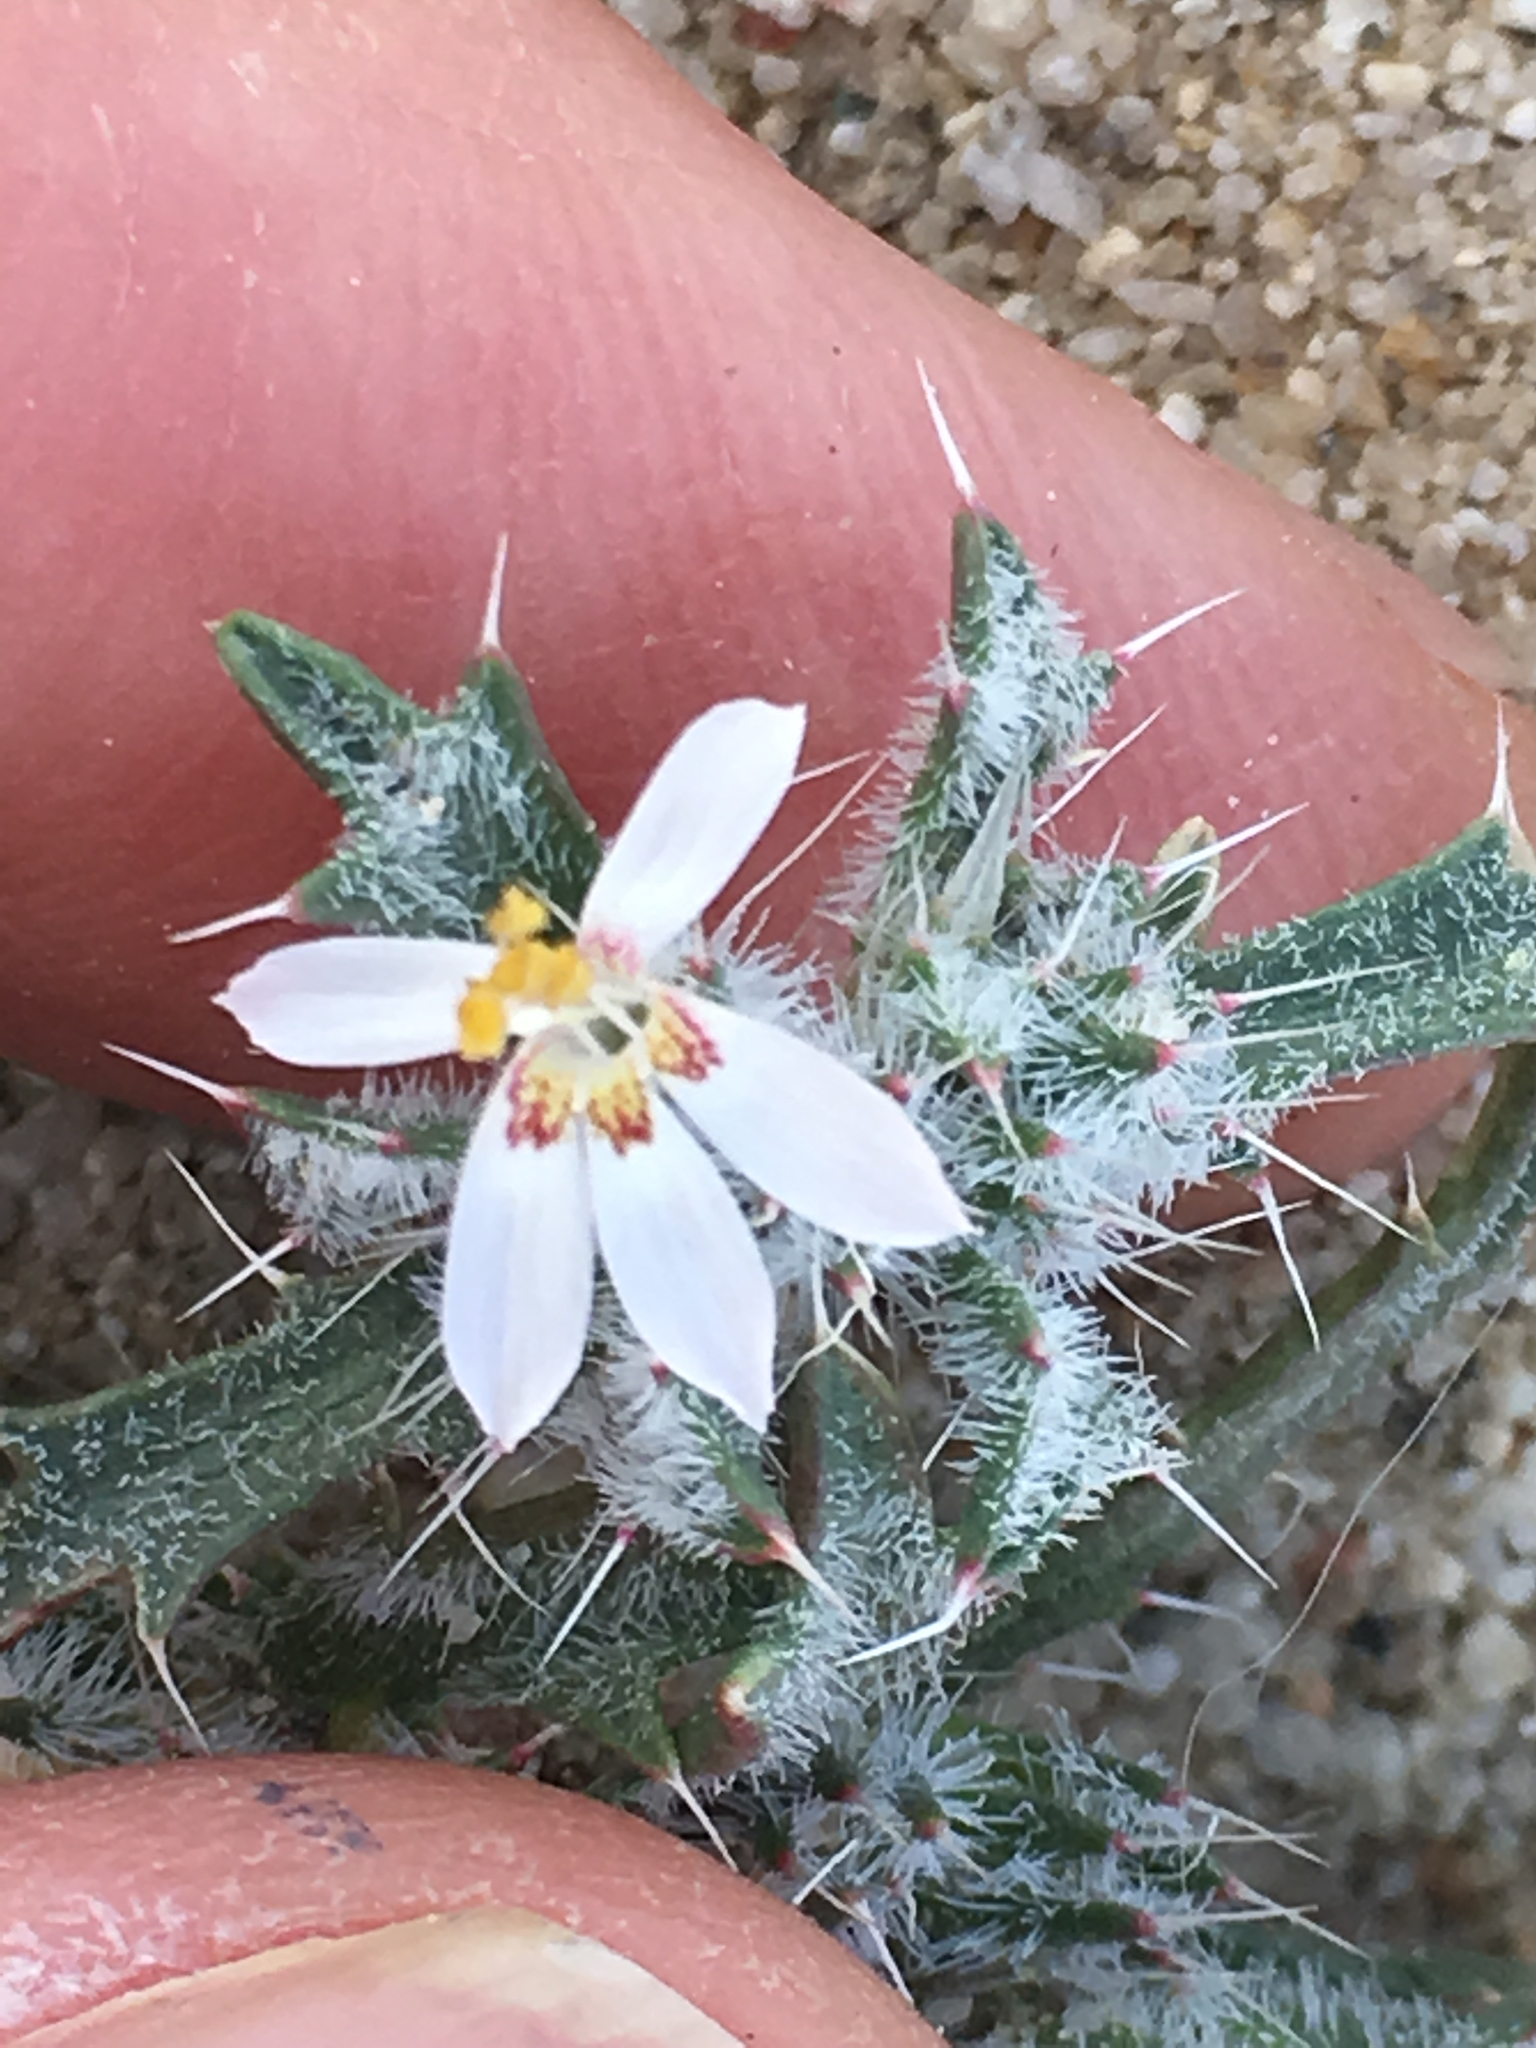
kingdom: Plantae
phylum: Tracheophyta
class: Magnoliopsida
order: Ericales
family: Polemoniaceae
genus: Loeseliastrum
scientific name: Loeseliastrum matthewsii
